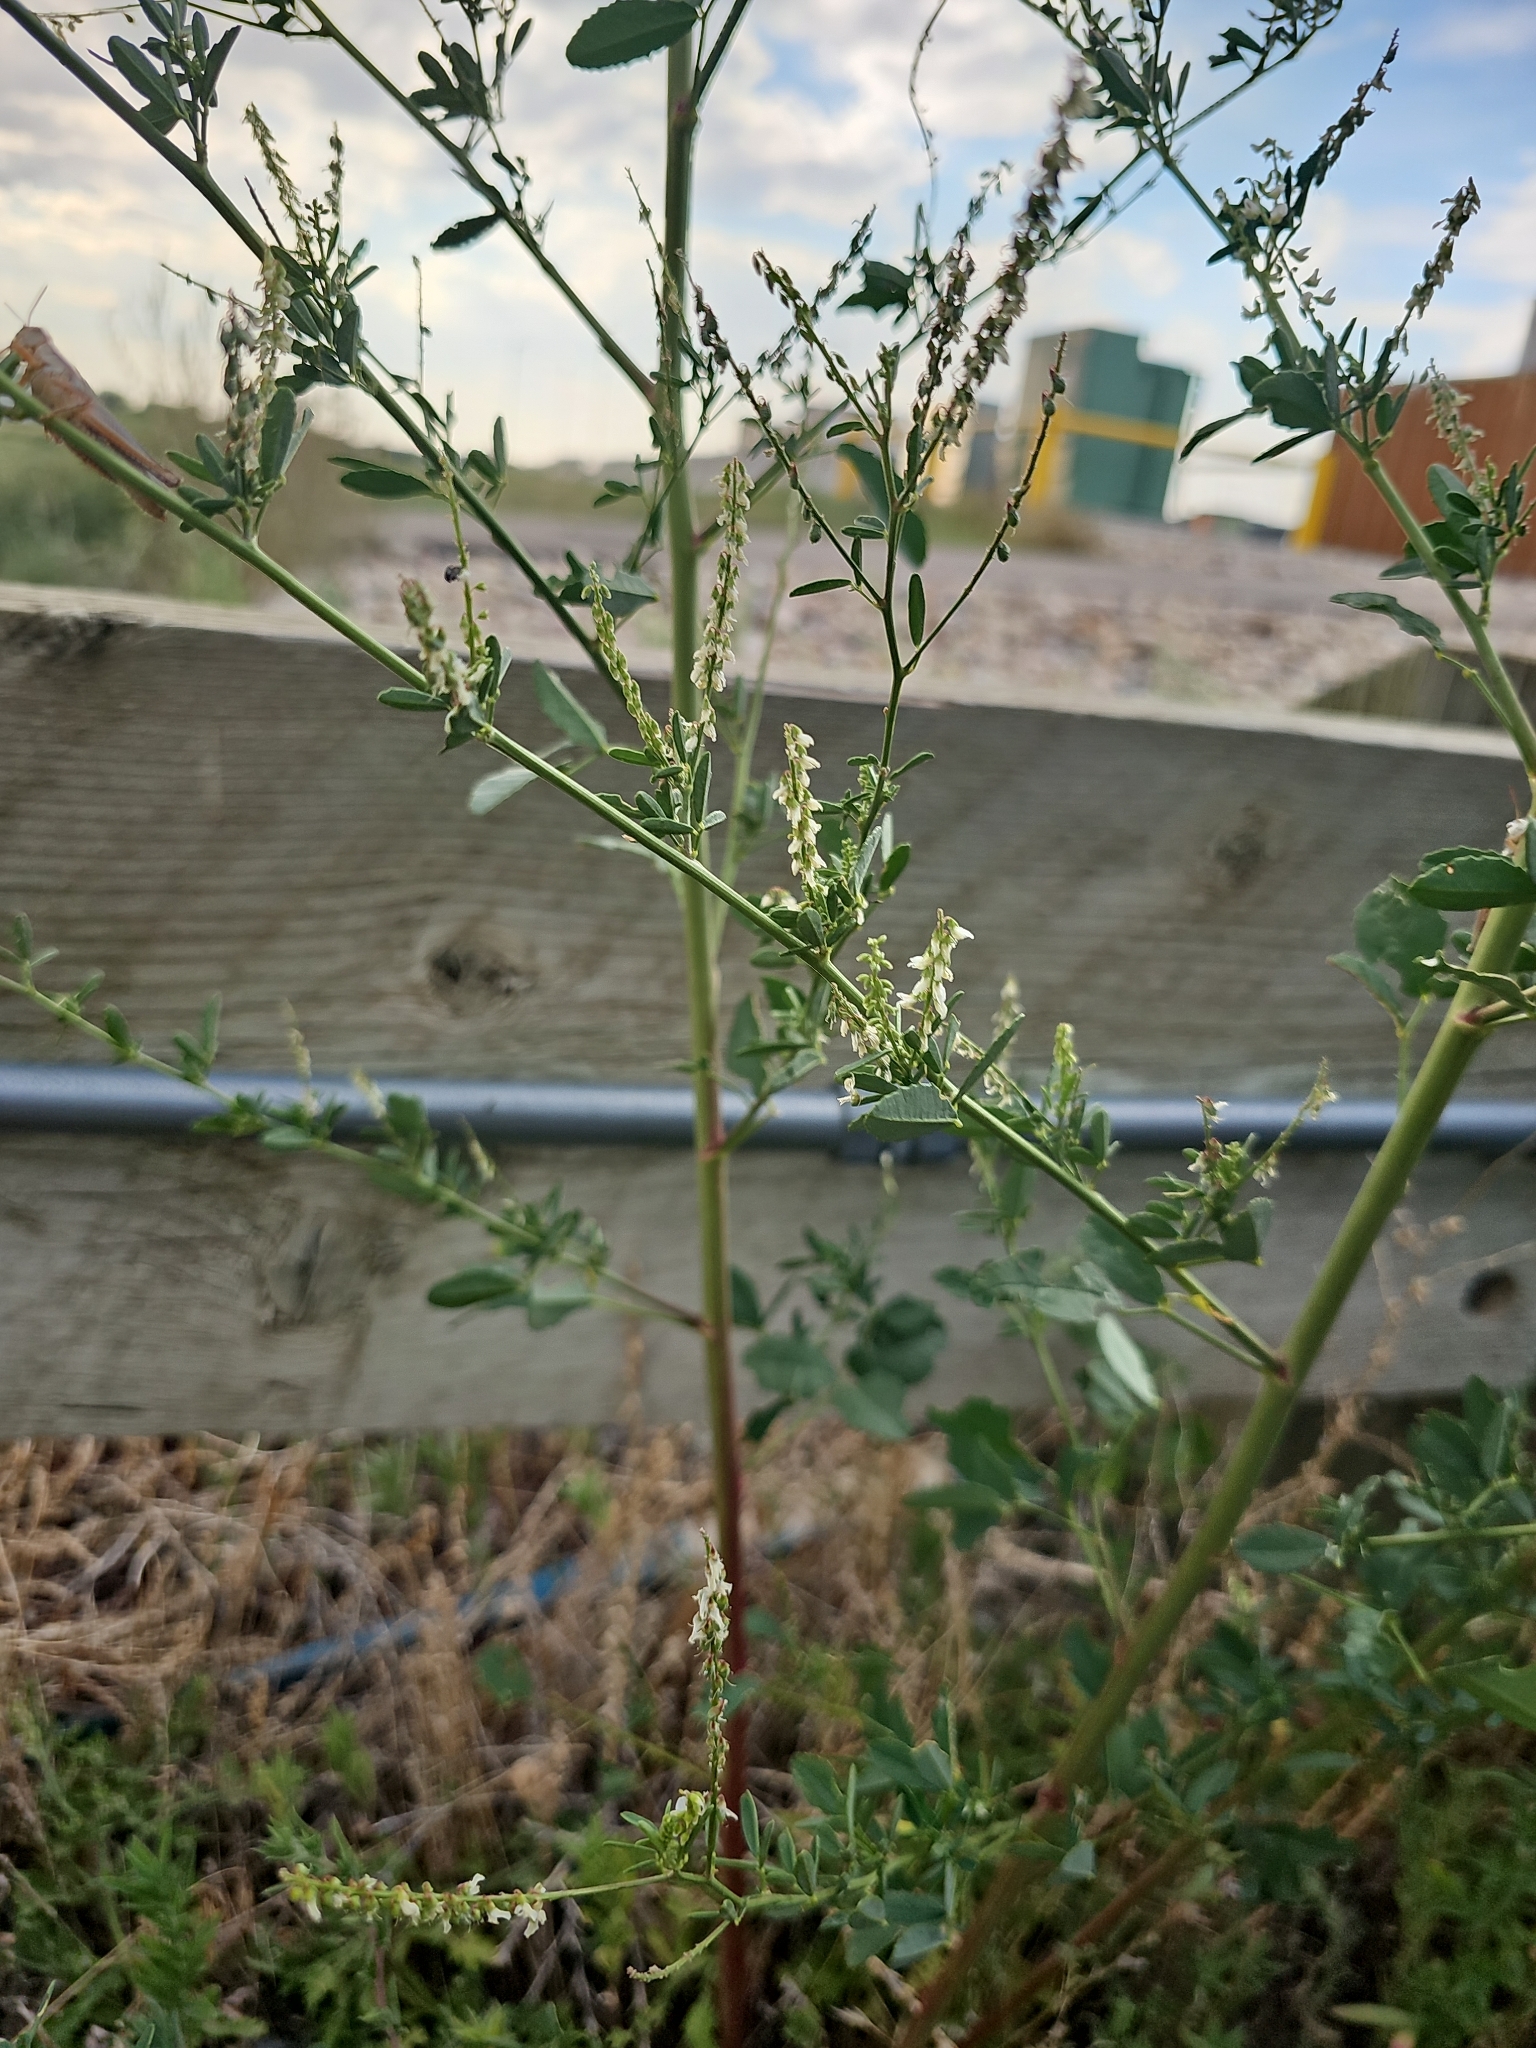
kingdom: Plantae
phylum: Tracheophyta
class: Magnoliopsida
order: Fabales
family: Fabaceae
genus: Melilotus
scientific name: Melilotus albus
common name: White melilot
